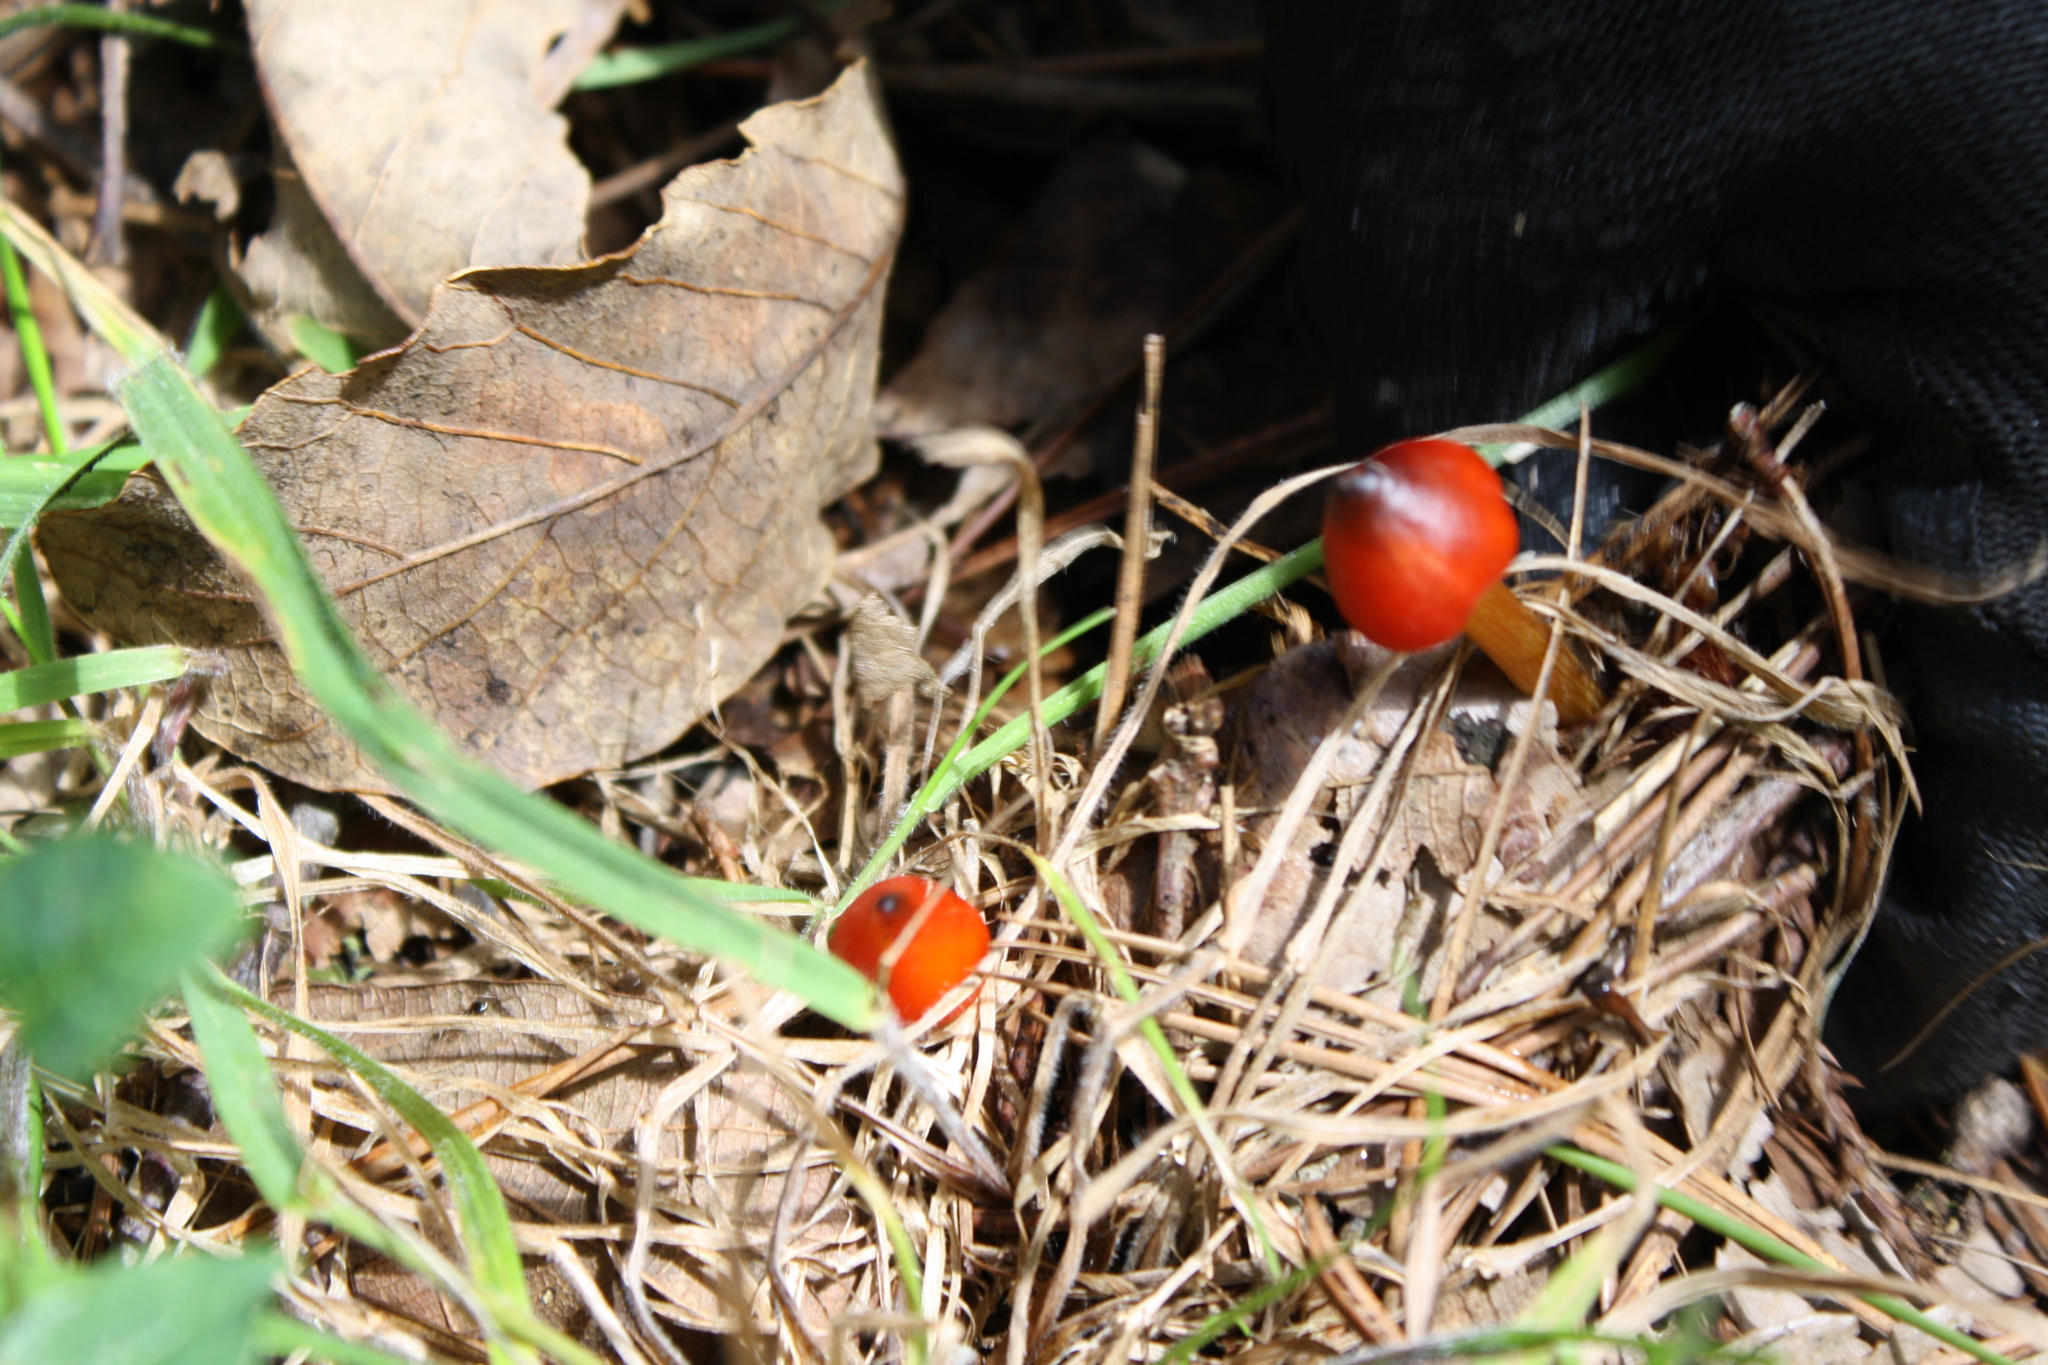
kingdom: Fungi
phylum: Basidiomycota
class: Agaricomycetes
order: Agaricales
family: Hygrophoraceae
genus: Hygrocybe
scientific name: Hygrocybe conica
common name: Blackening wax-cap
